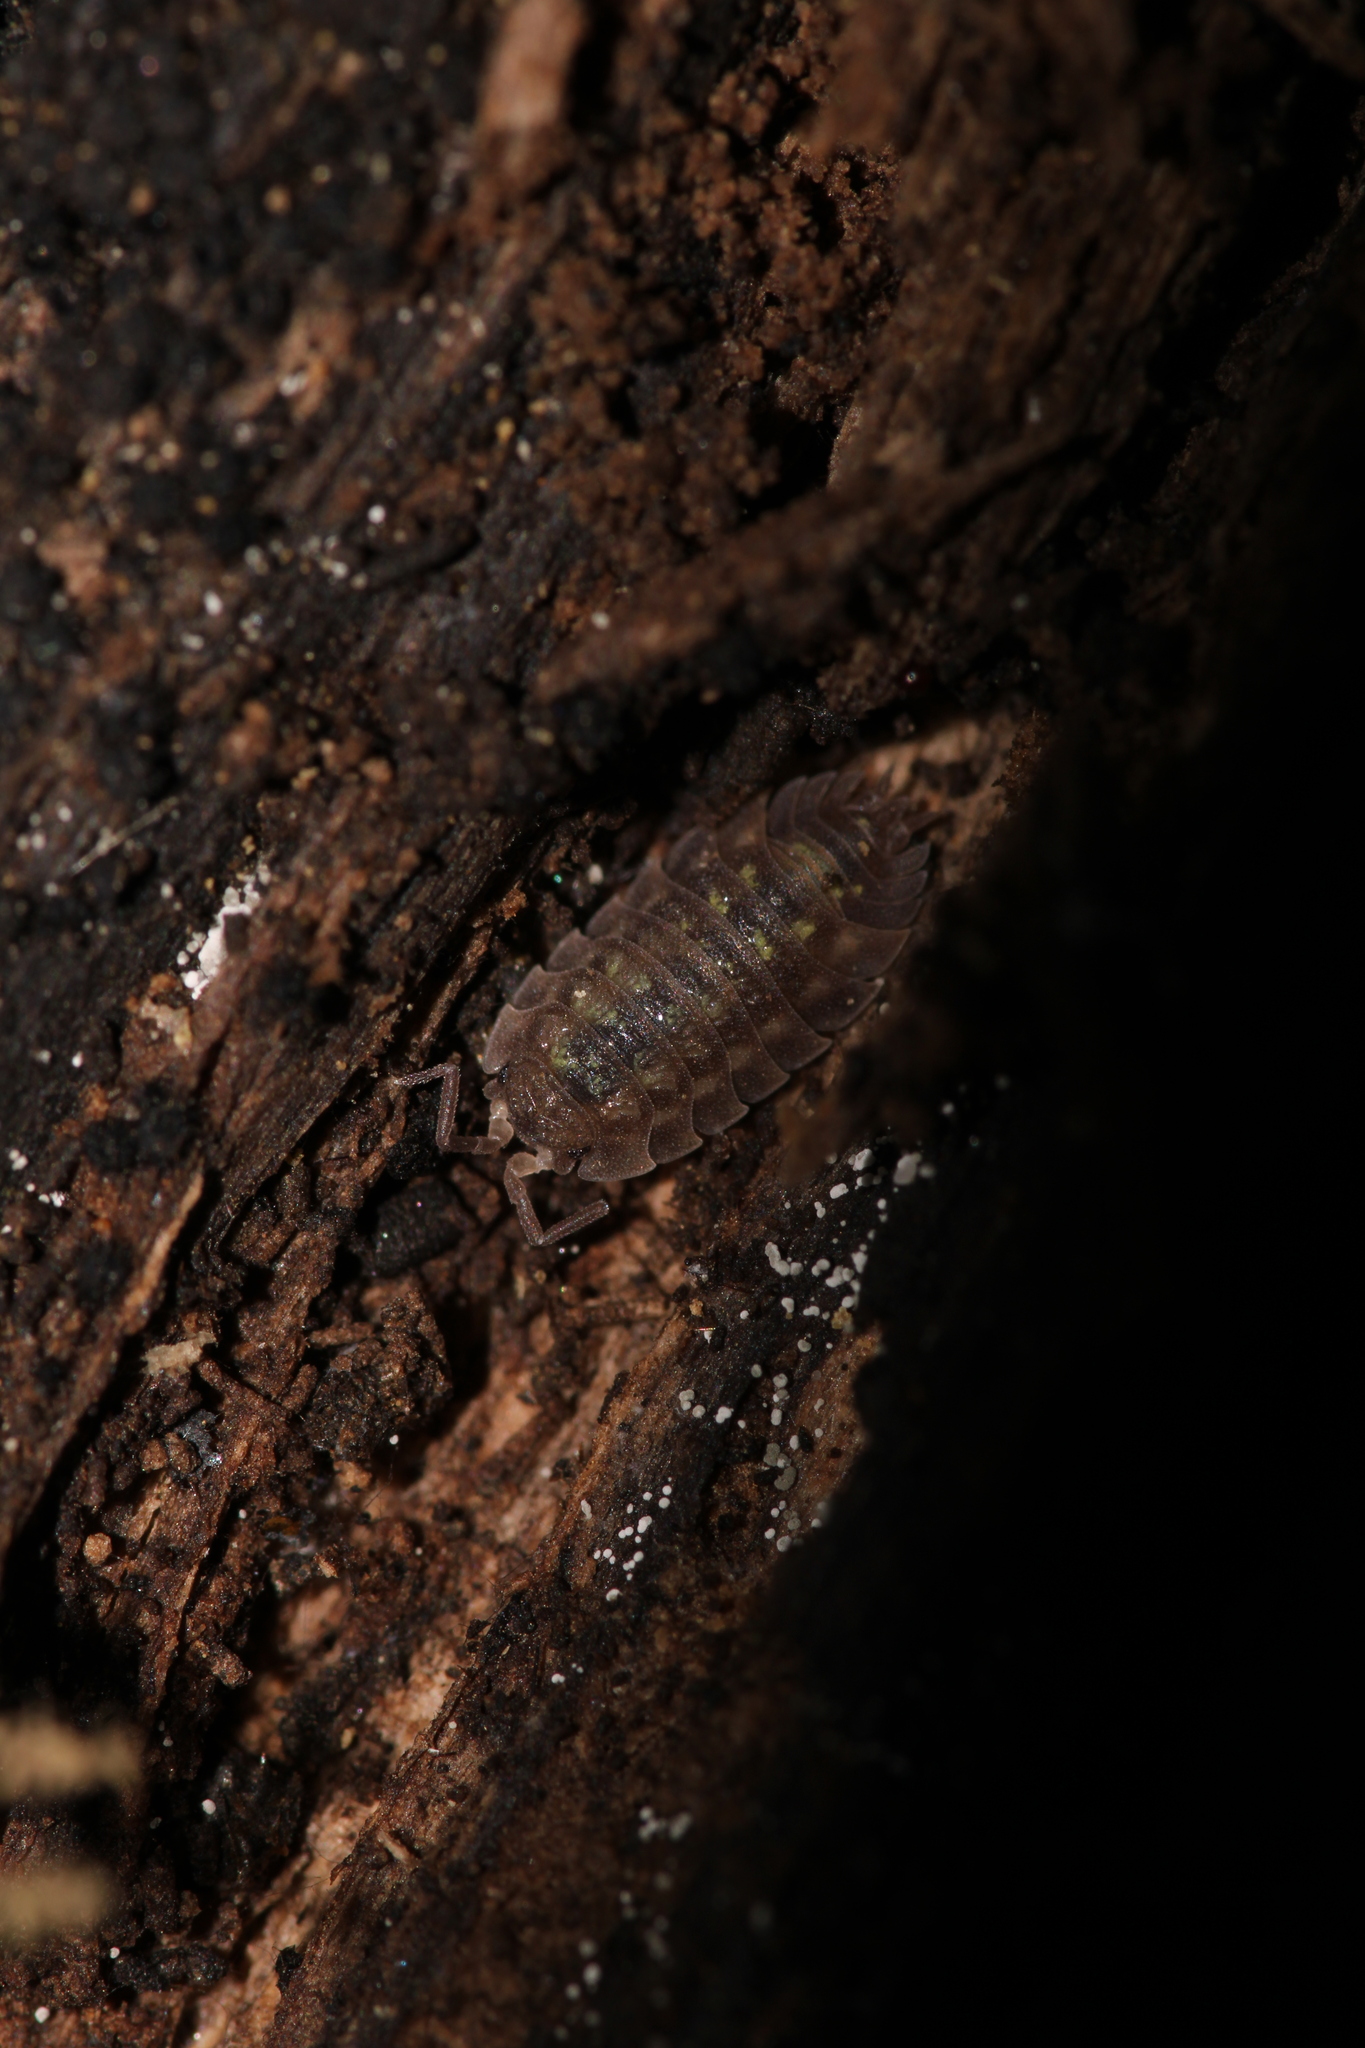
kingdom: Animalia
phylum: Arthropoda
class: Malacostraca
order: Isopoda
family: Oniscidae
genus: Oniscus
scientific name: Oniscus asellus
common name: Common shiny woodlouse
